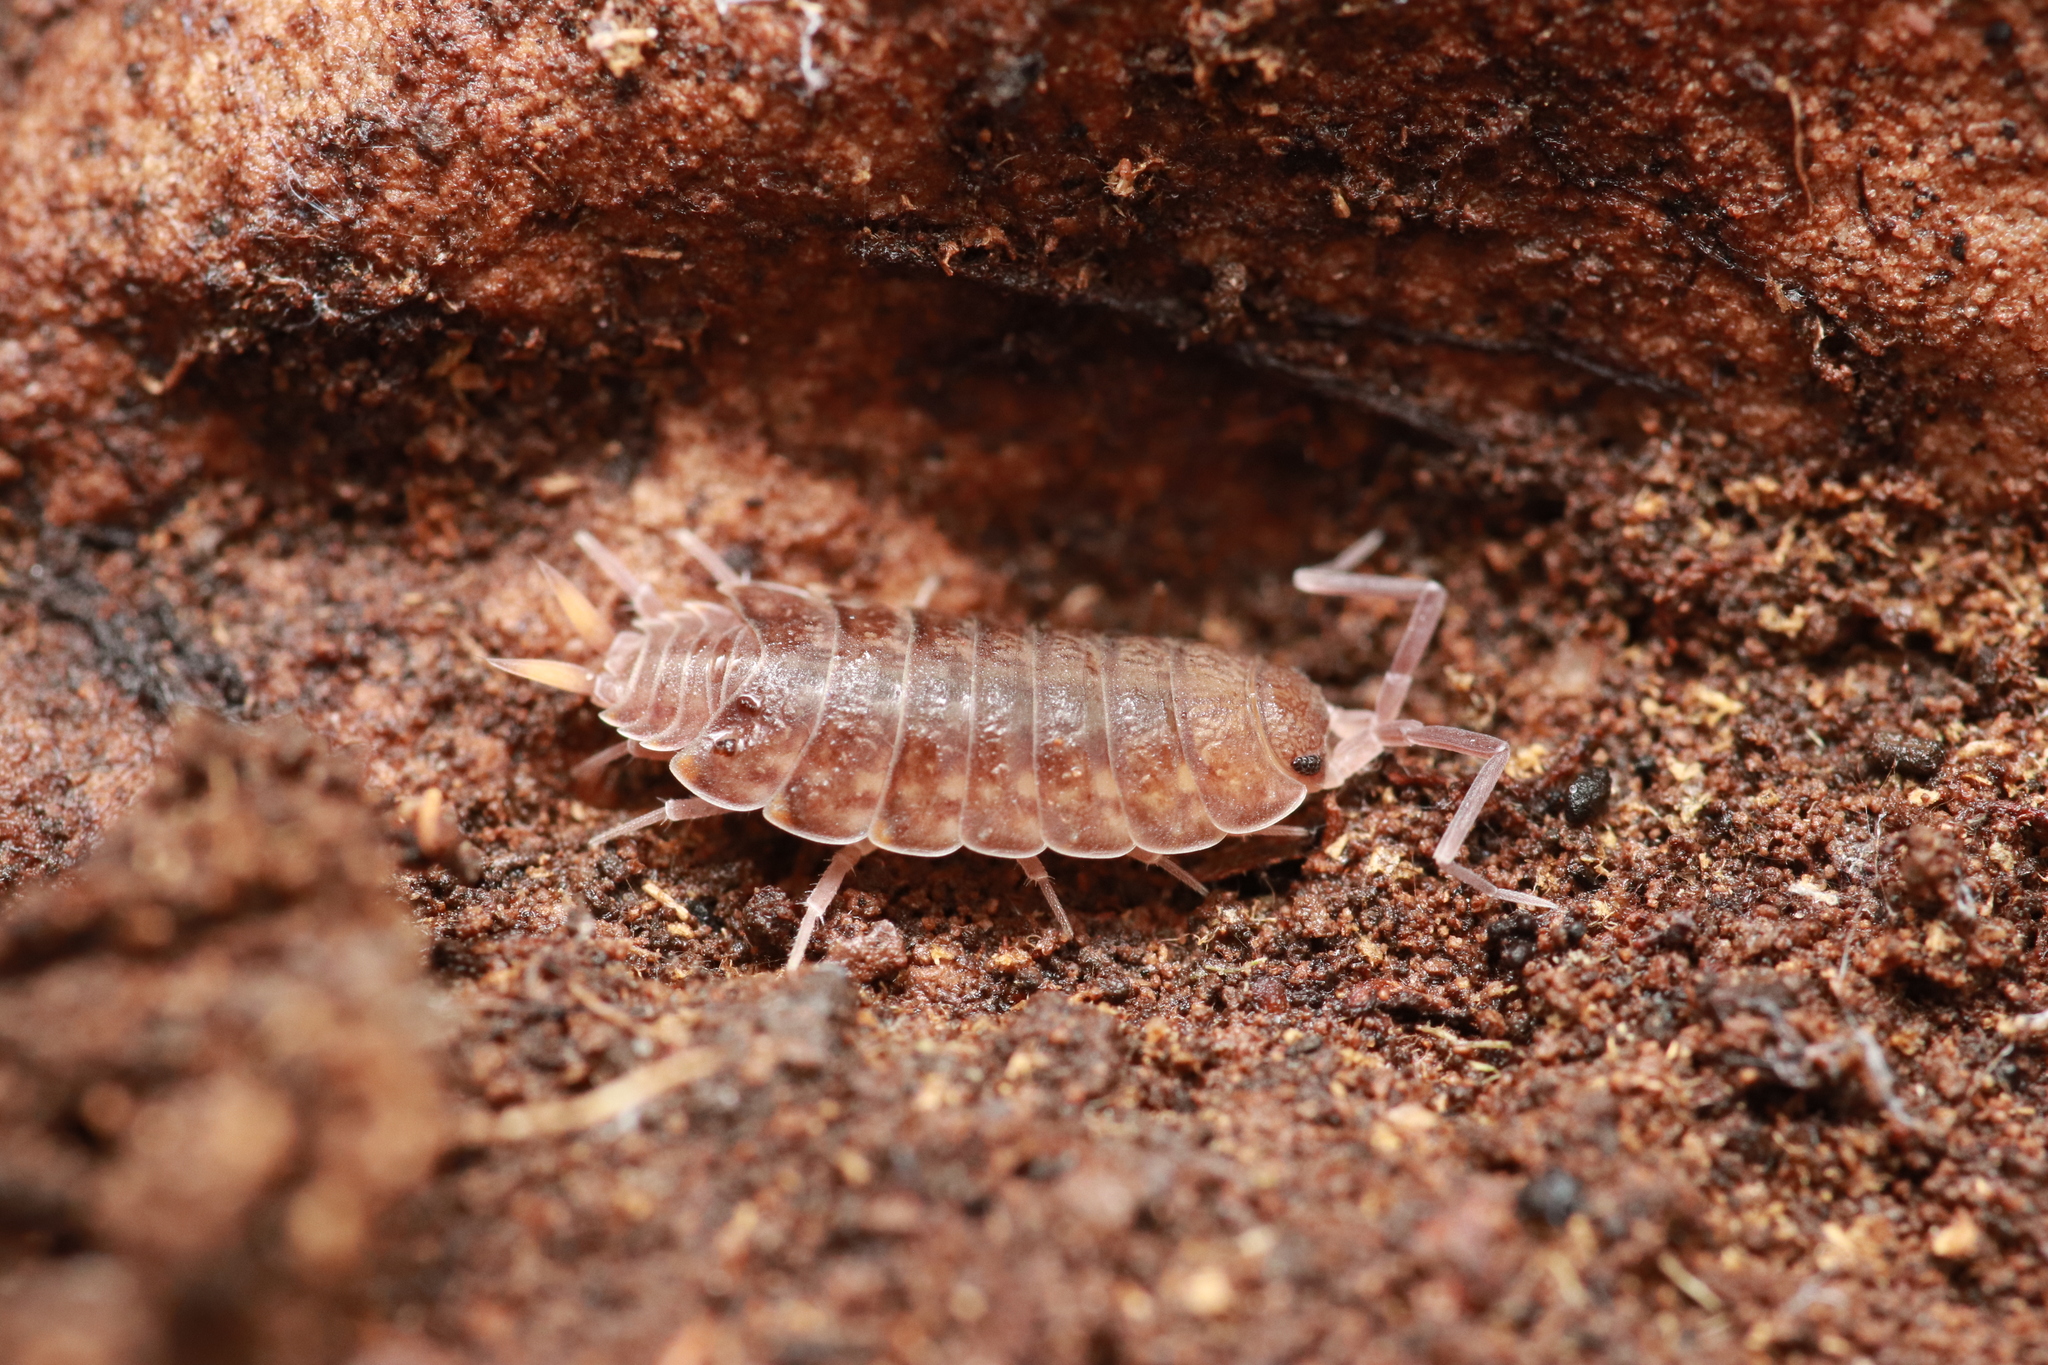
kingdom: Animalia
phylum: Arthropoda
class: Malacostraca
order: Isopoda
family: Agnaridae
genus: Orthometopon
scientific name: Orthometopon planum
